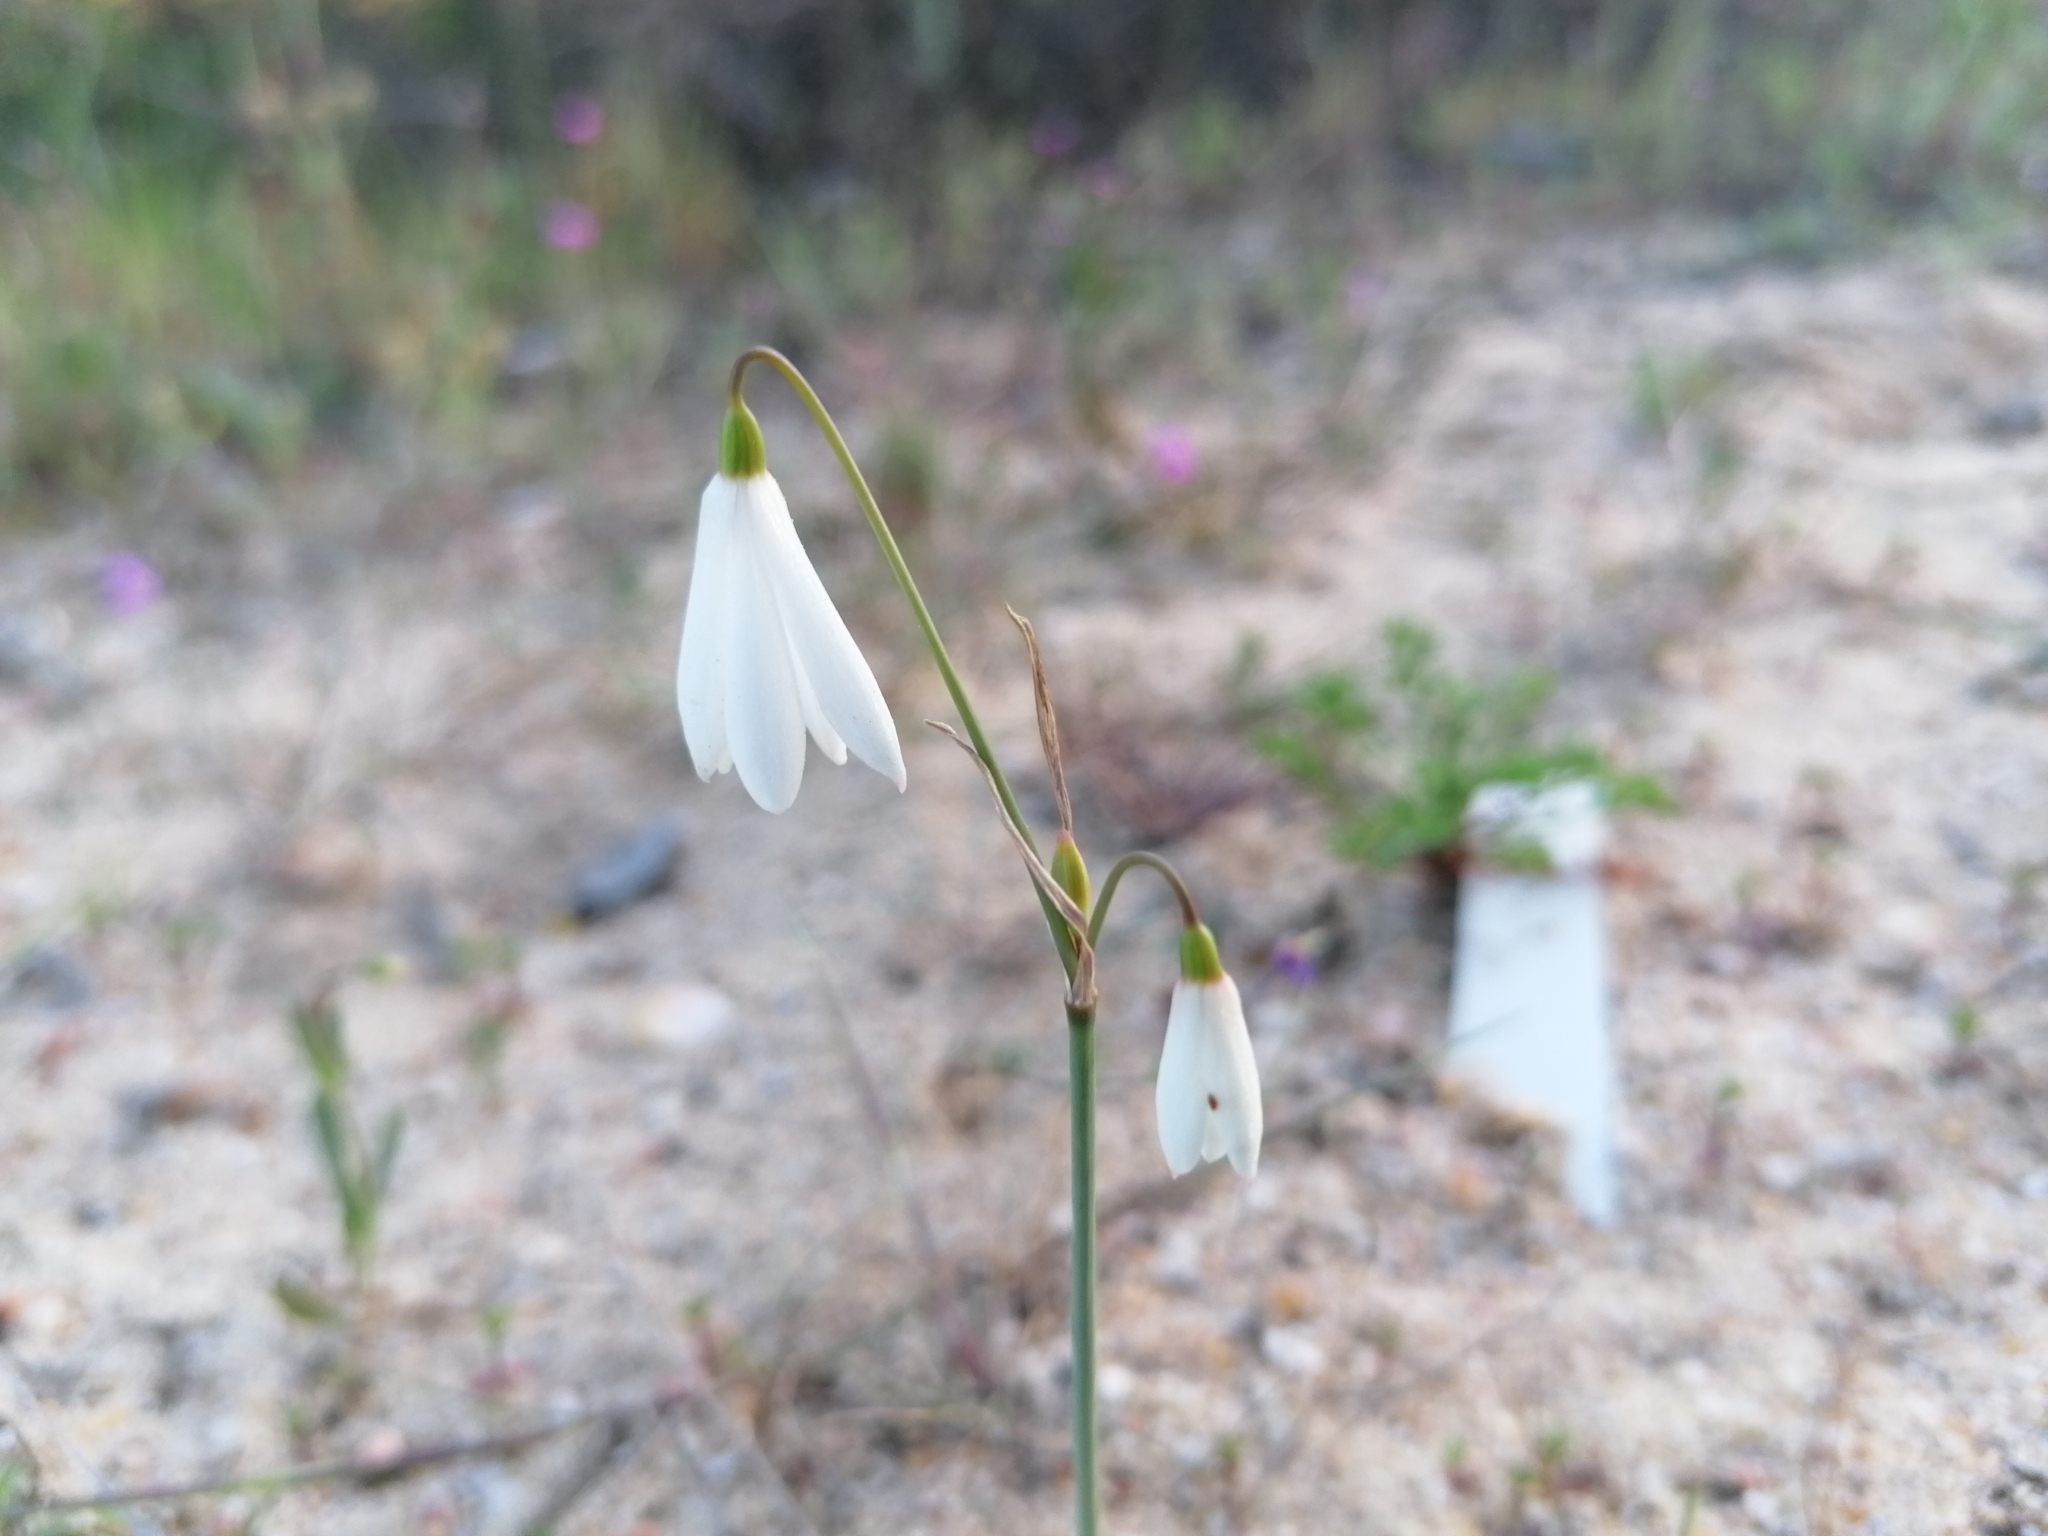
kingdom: Plantae
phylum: Tracheophyta
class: Liliopsida
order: Asparagales
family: Amaryllidaceae
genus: Acis
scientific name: Acis trichophylla
